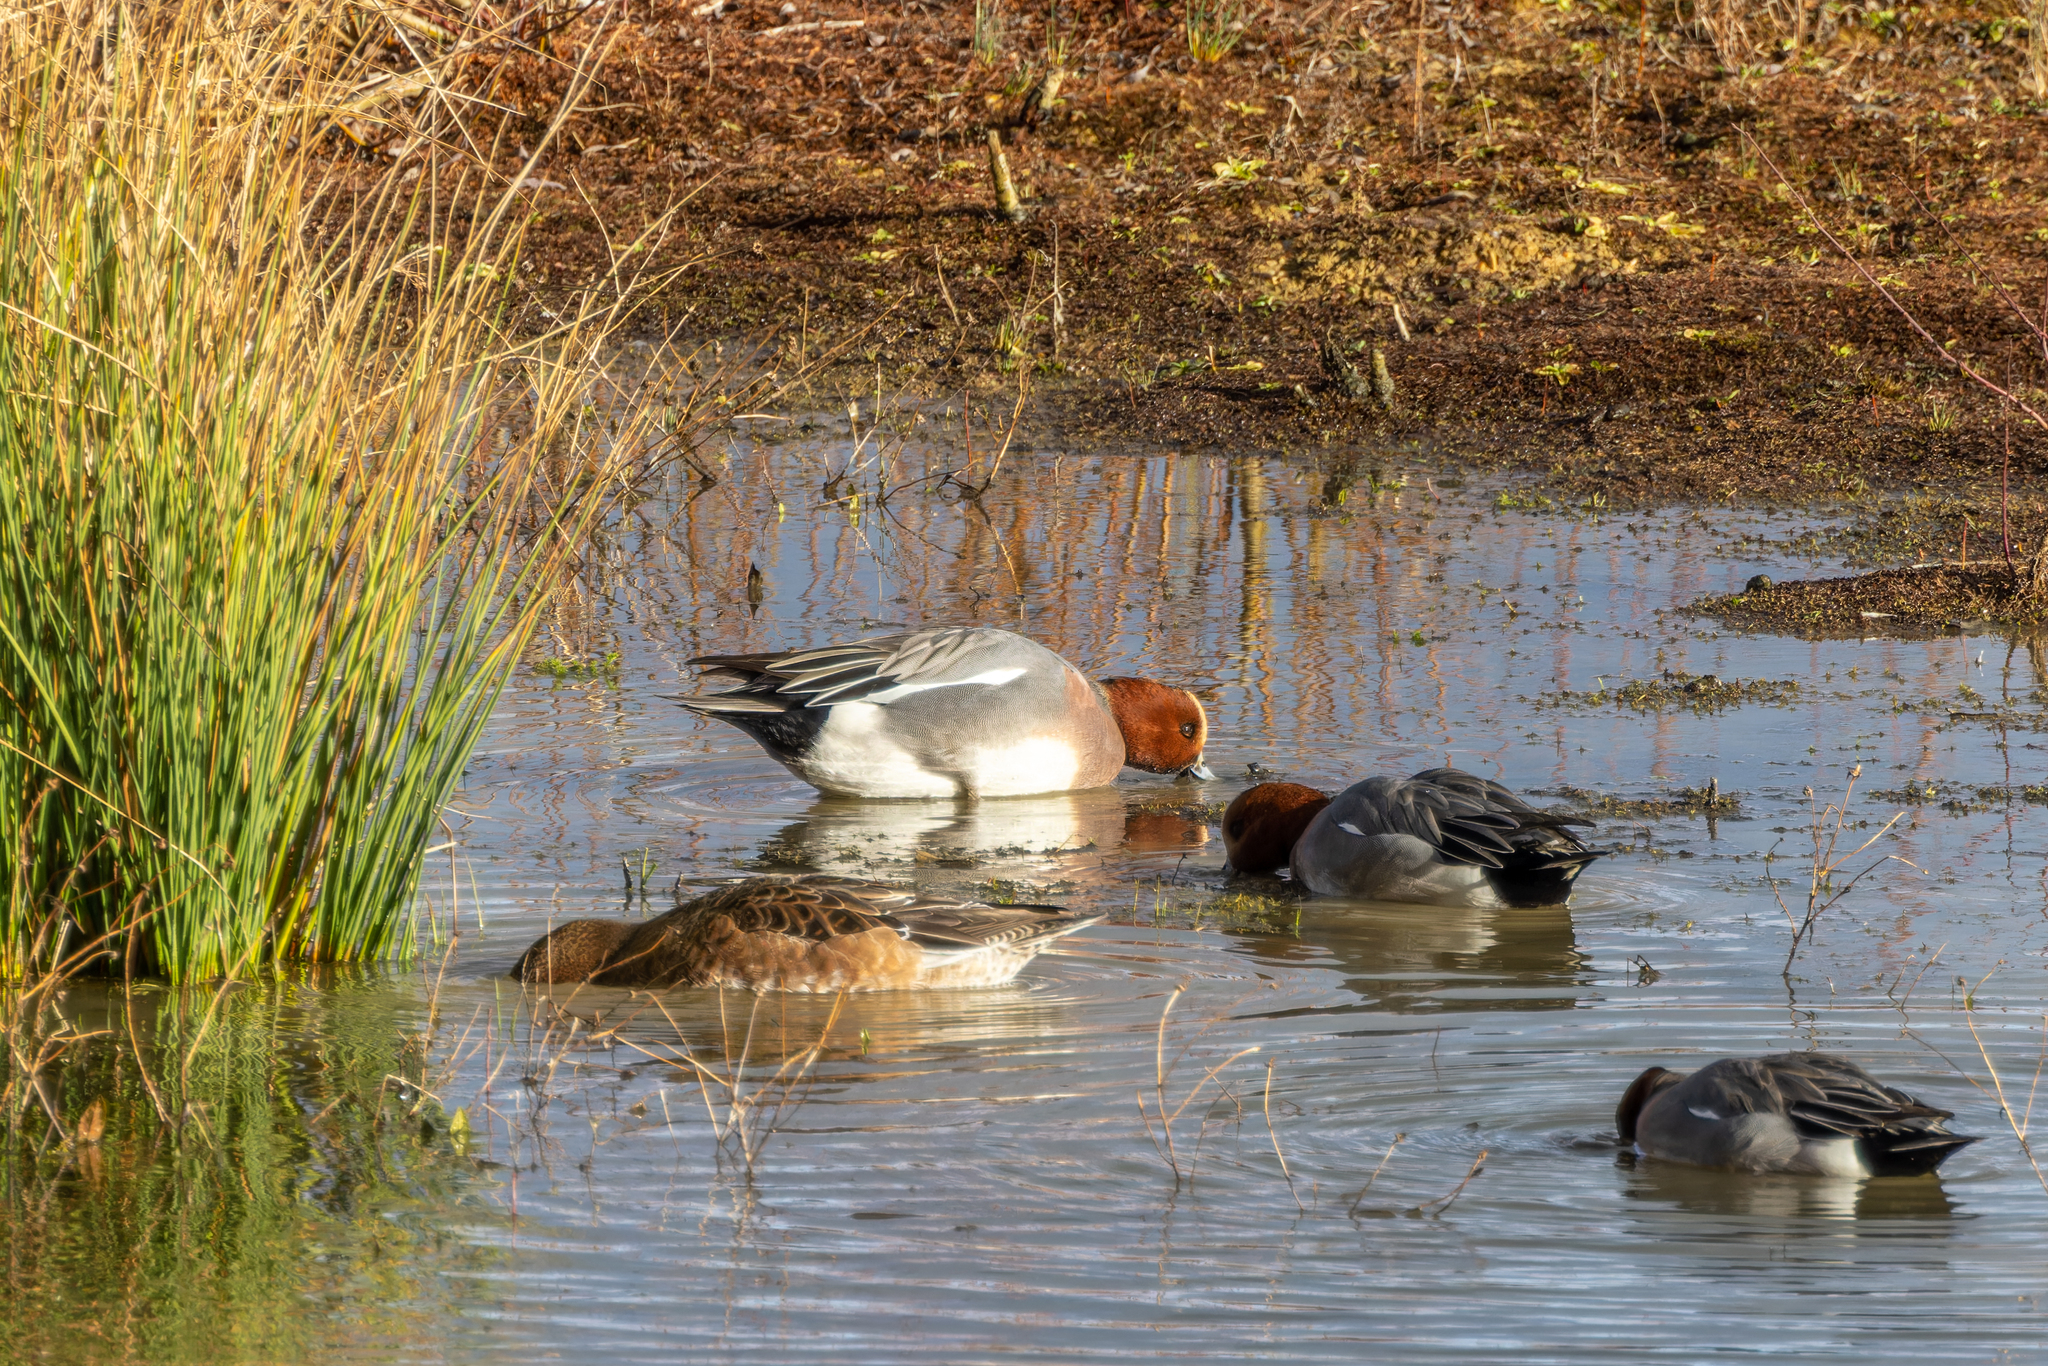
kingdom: Animalia
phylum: Chordata
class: Aves
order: Anseriformes
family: Anatidae
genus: Mareca
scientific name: Mareca penelope
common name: Eurasian wigeon
